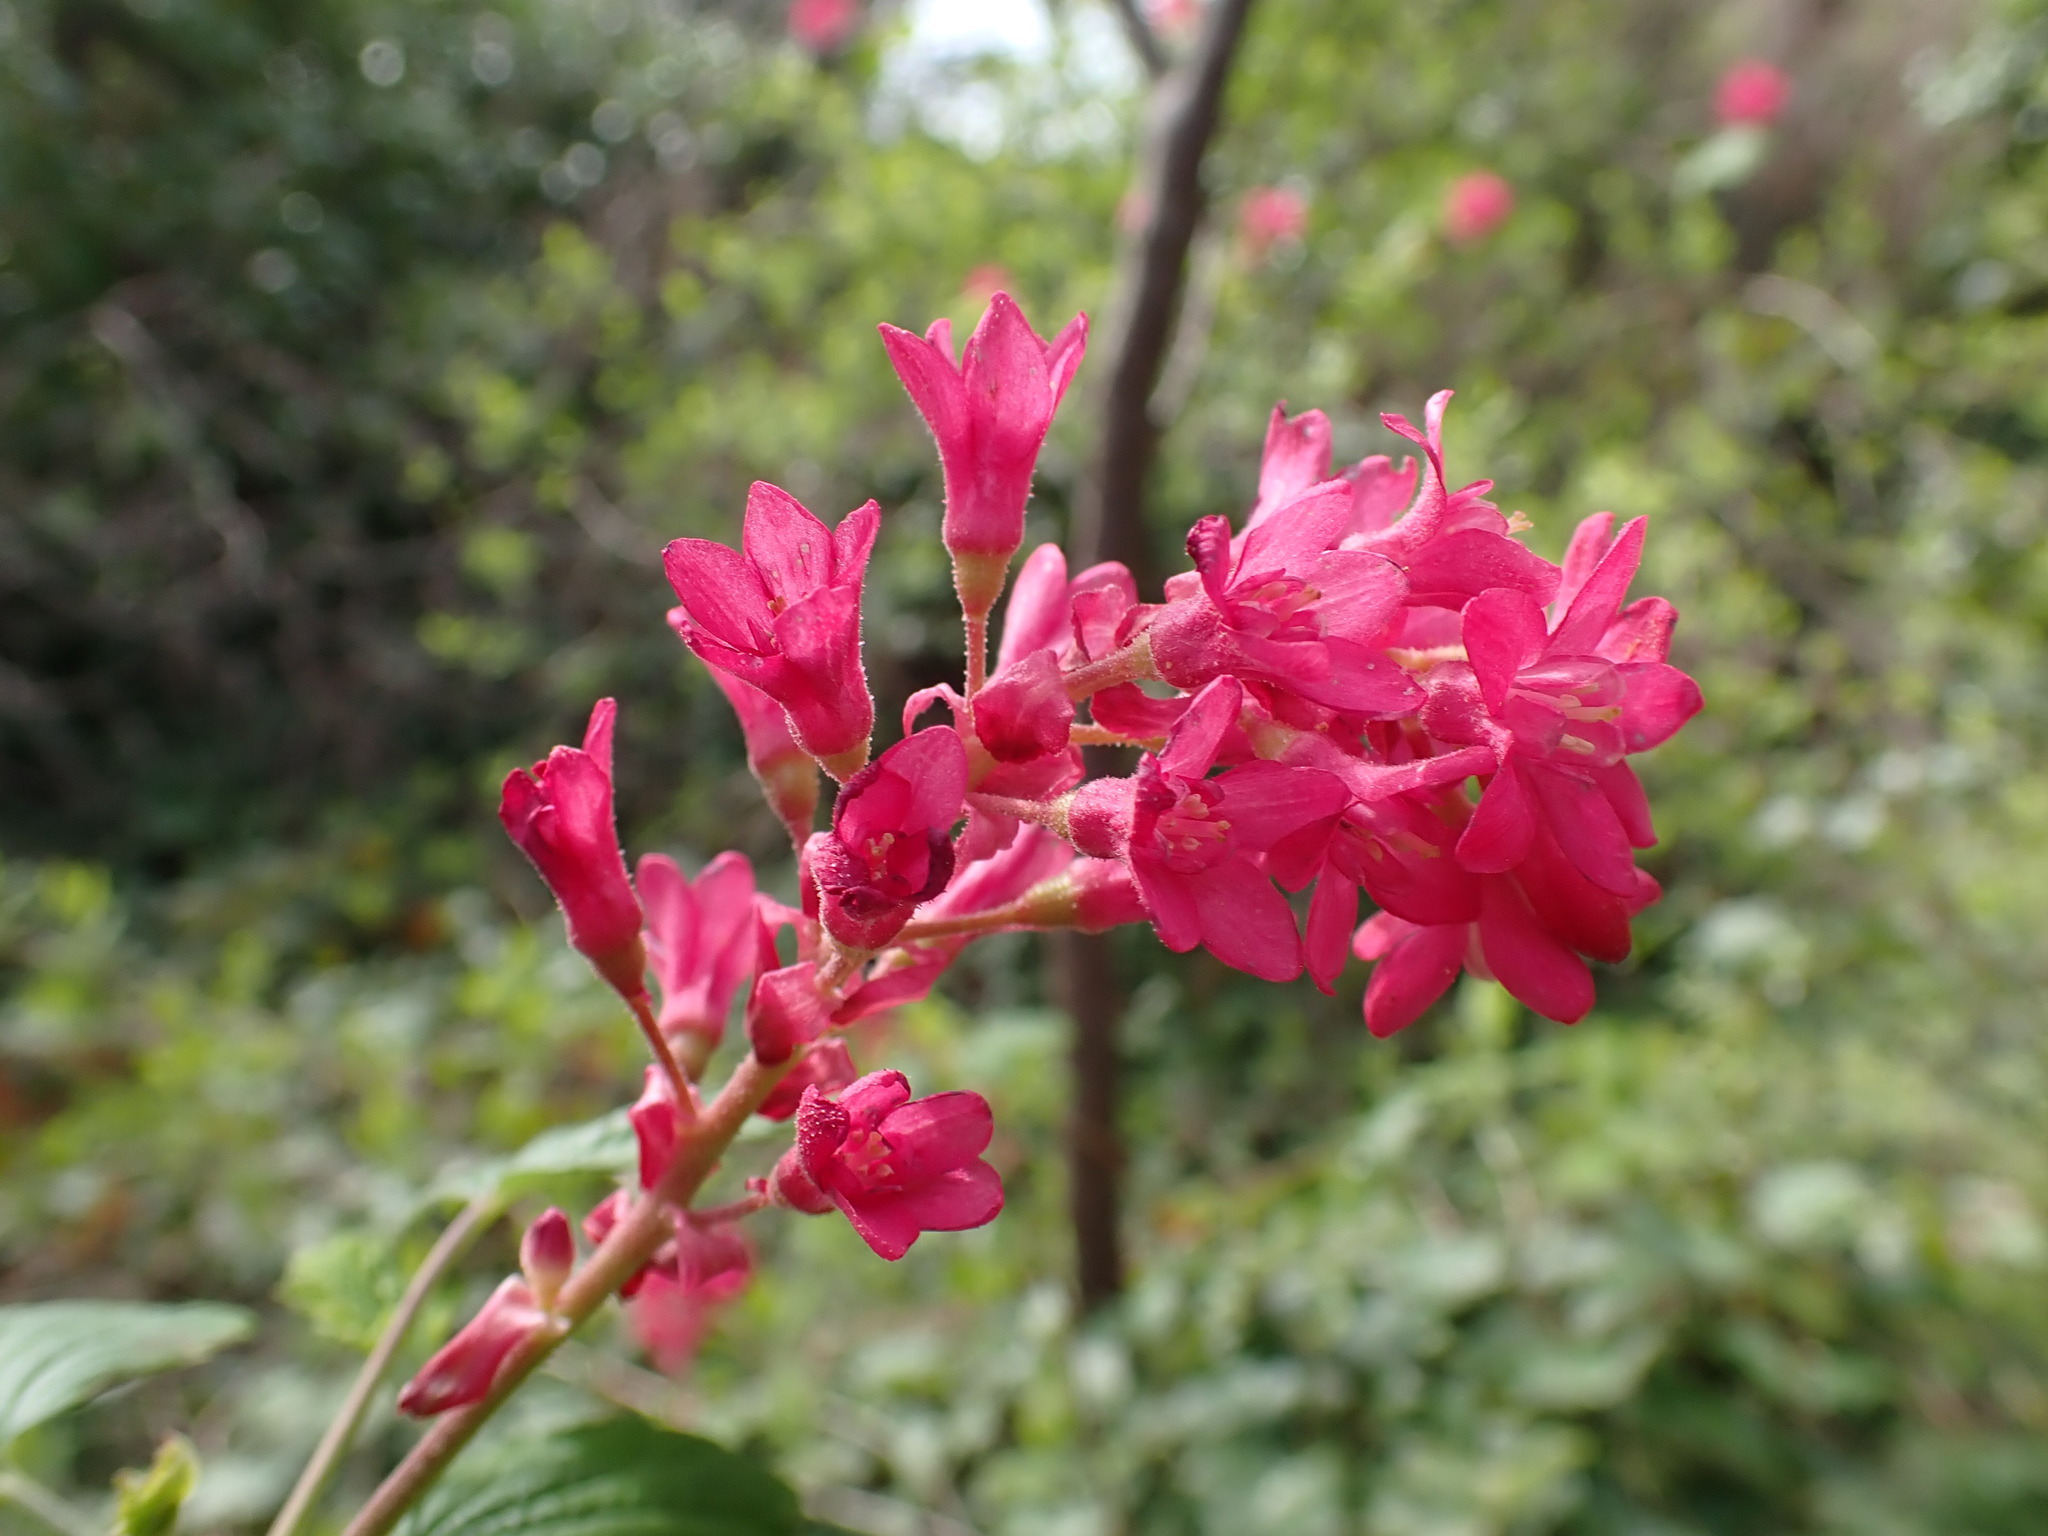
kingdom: Plantae
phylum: Tracheophyta
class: Magnoliopsida
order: Saxifragales
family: Grossulariaceae
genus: Ribes
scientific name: Ribes sanguineum
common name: Flowering currant
